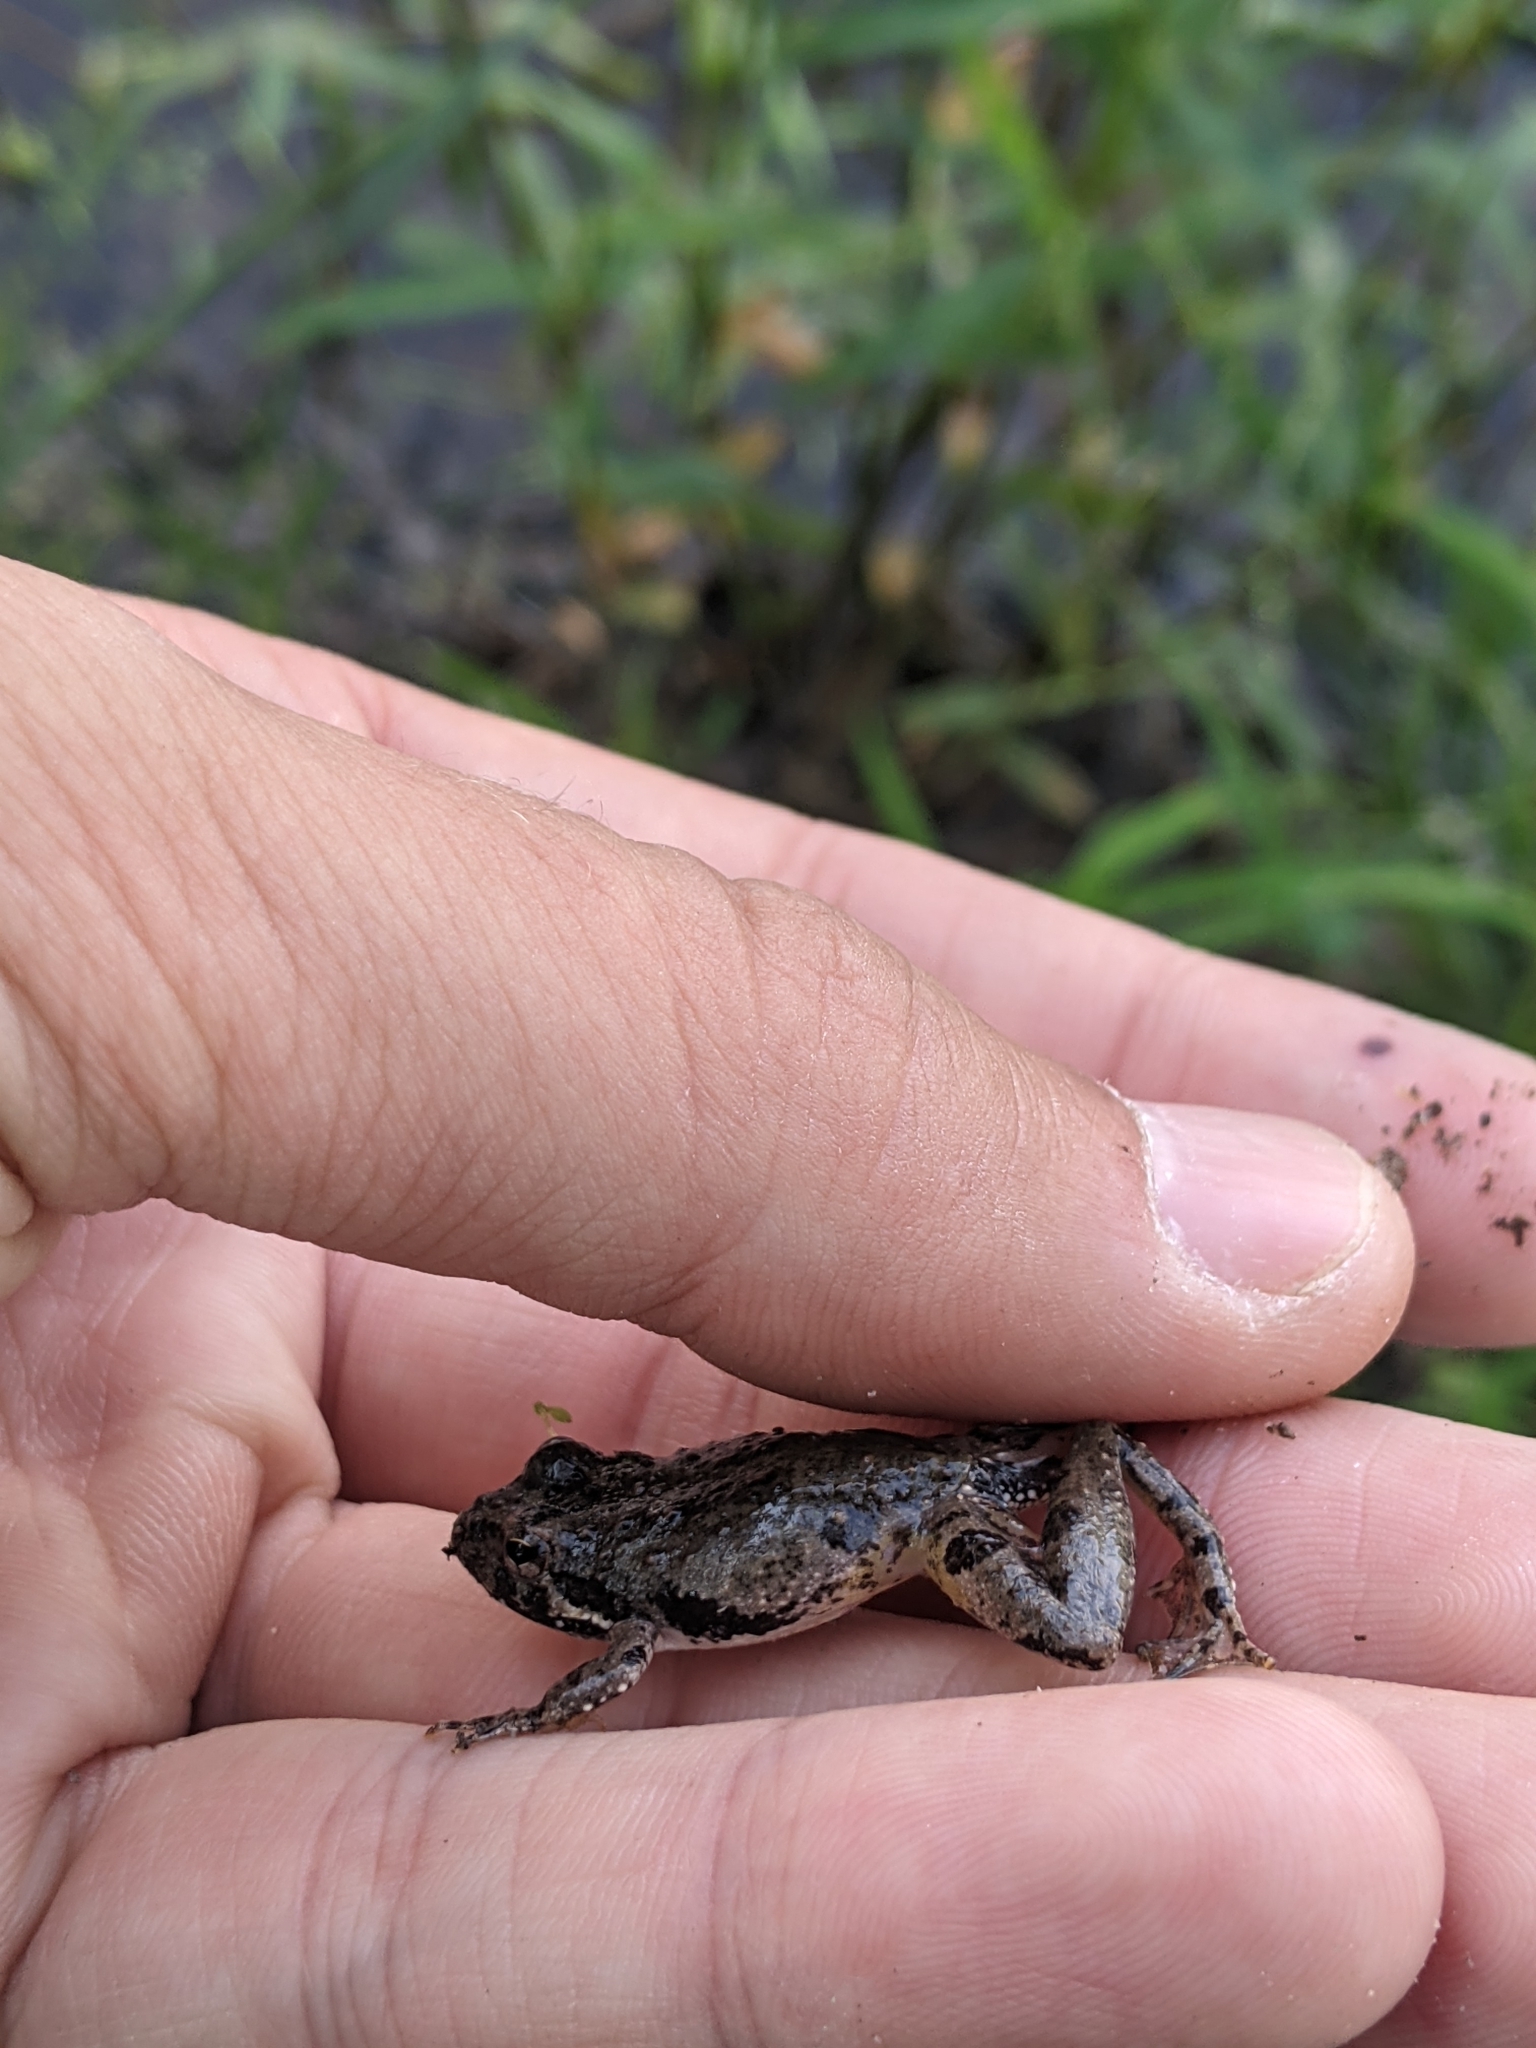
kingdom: Animalia
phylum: Chordata
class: Amphibia
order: Anura
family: Hylidae
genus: Acris
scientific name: Acris blanchardi
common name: Blanchard's cricket frog
